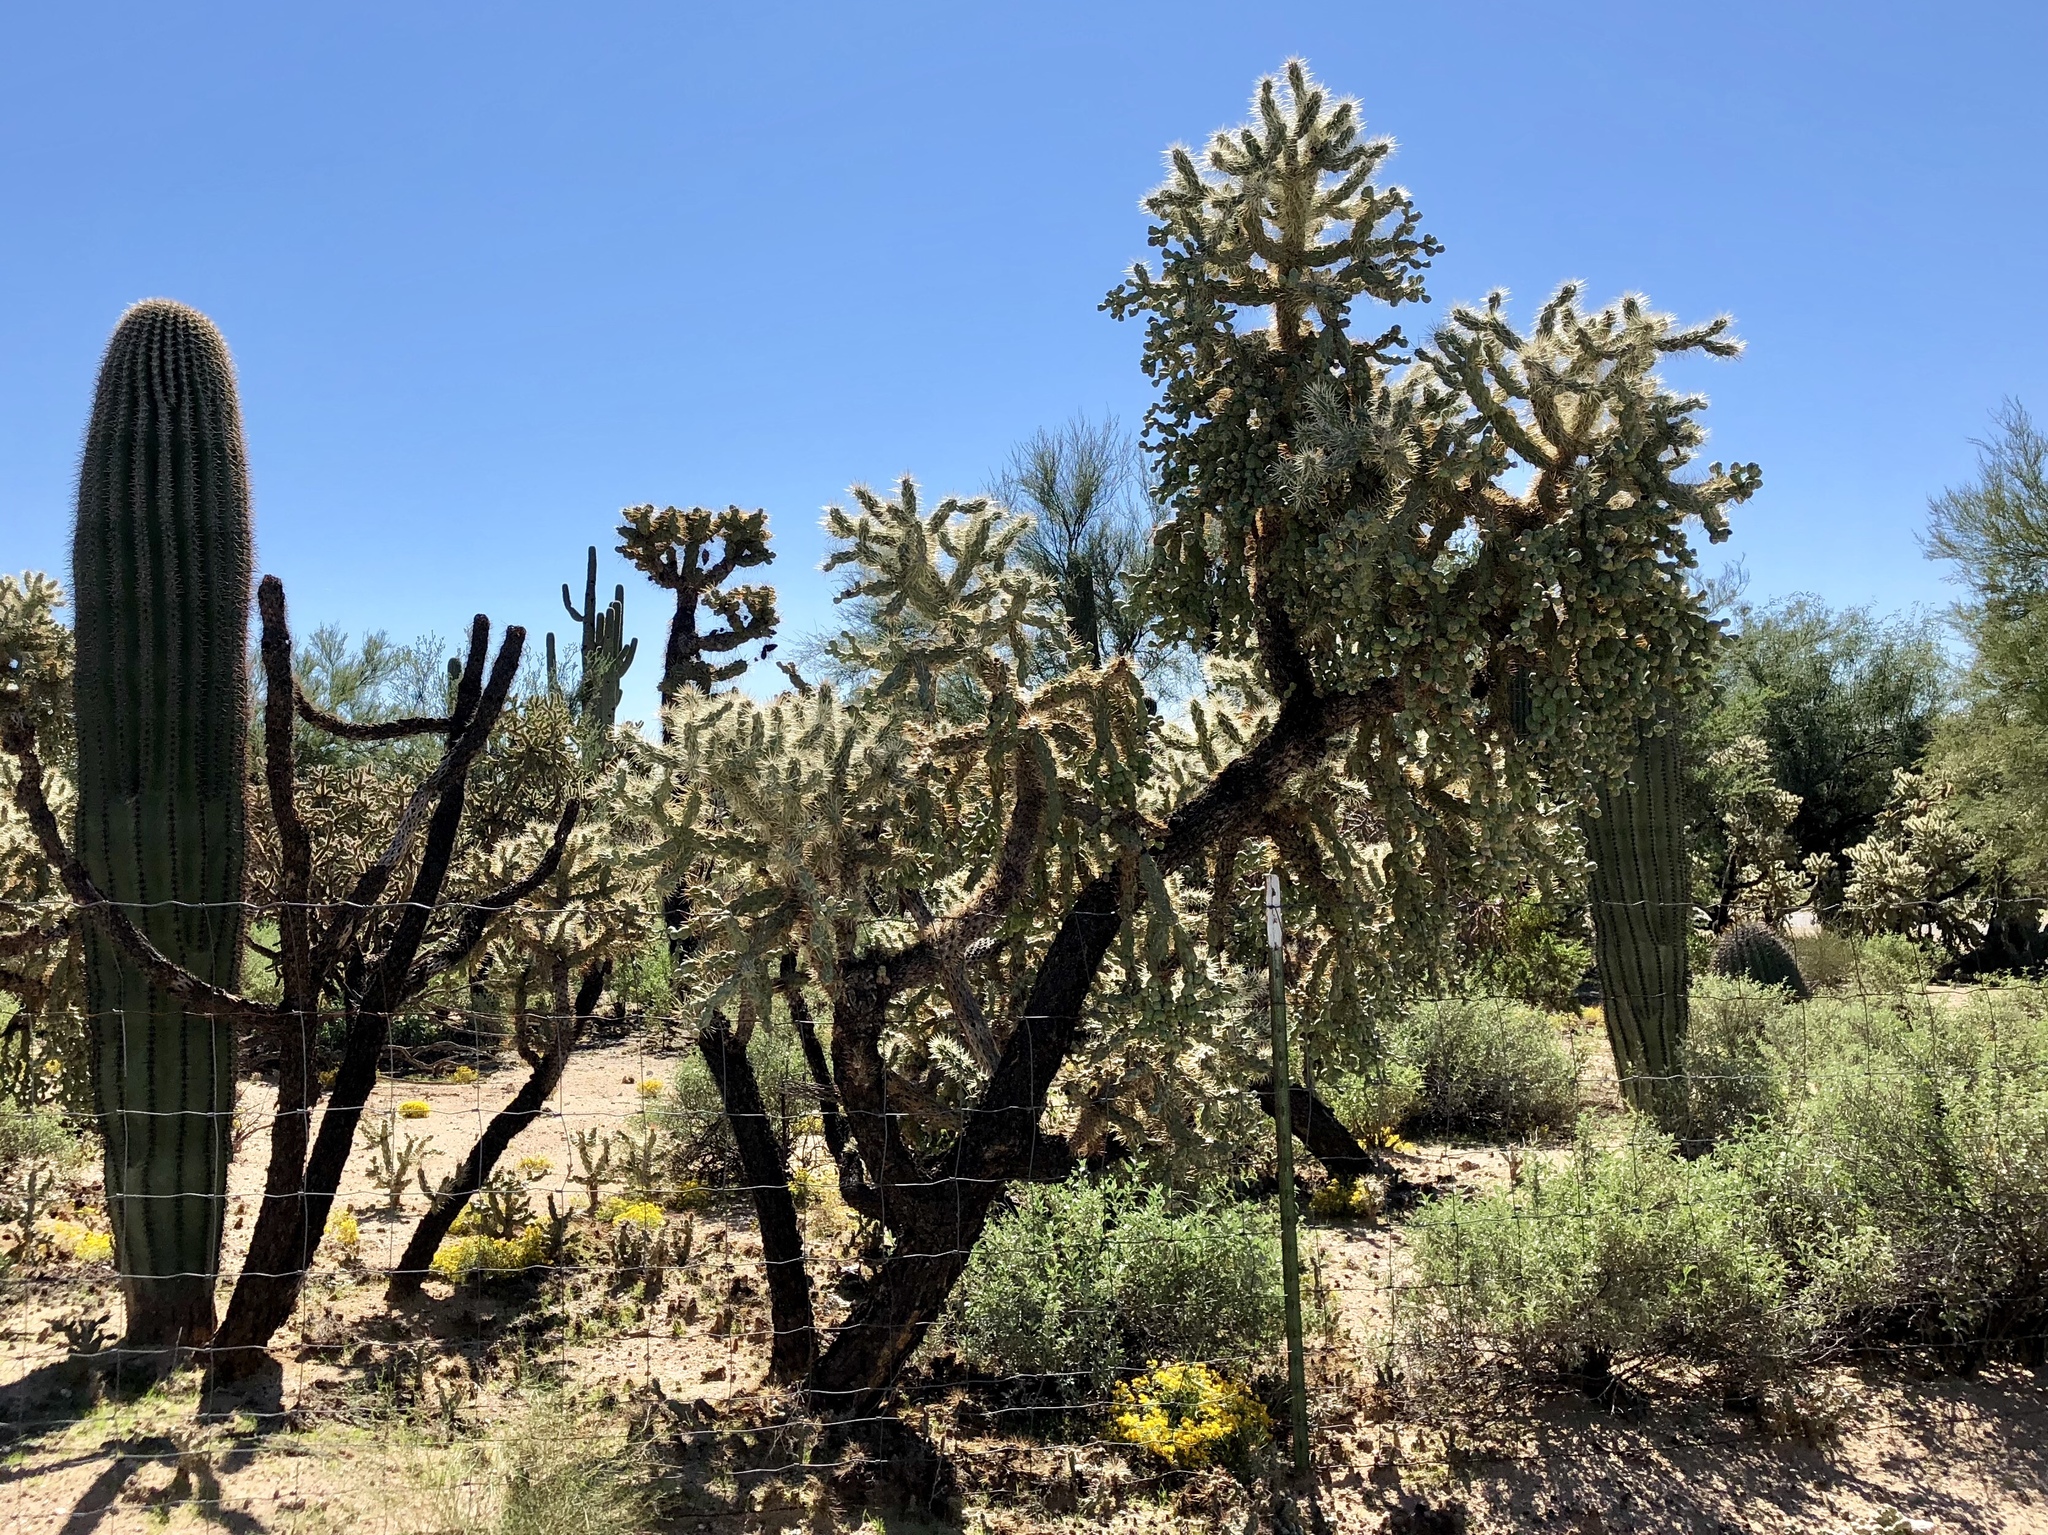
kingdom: Plantae
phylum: Tracheophyta
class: Magnoliopsida
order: Caryophyllales
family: Cactaceae
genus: Cylindropuntia
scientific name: Cylindropuntia fulgida
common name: Jumping cholla
